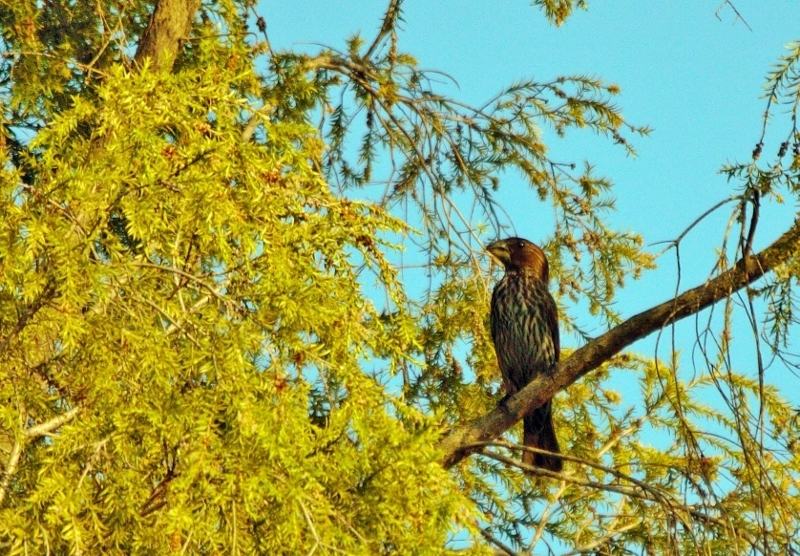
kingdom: Animalia
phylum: Chordata
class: Aves
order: Passeriformes
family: Ploceidae
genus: Amblyospiza
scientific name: Amblyospiza albifrons
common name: Thick-billed weaver
